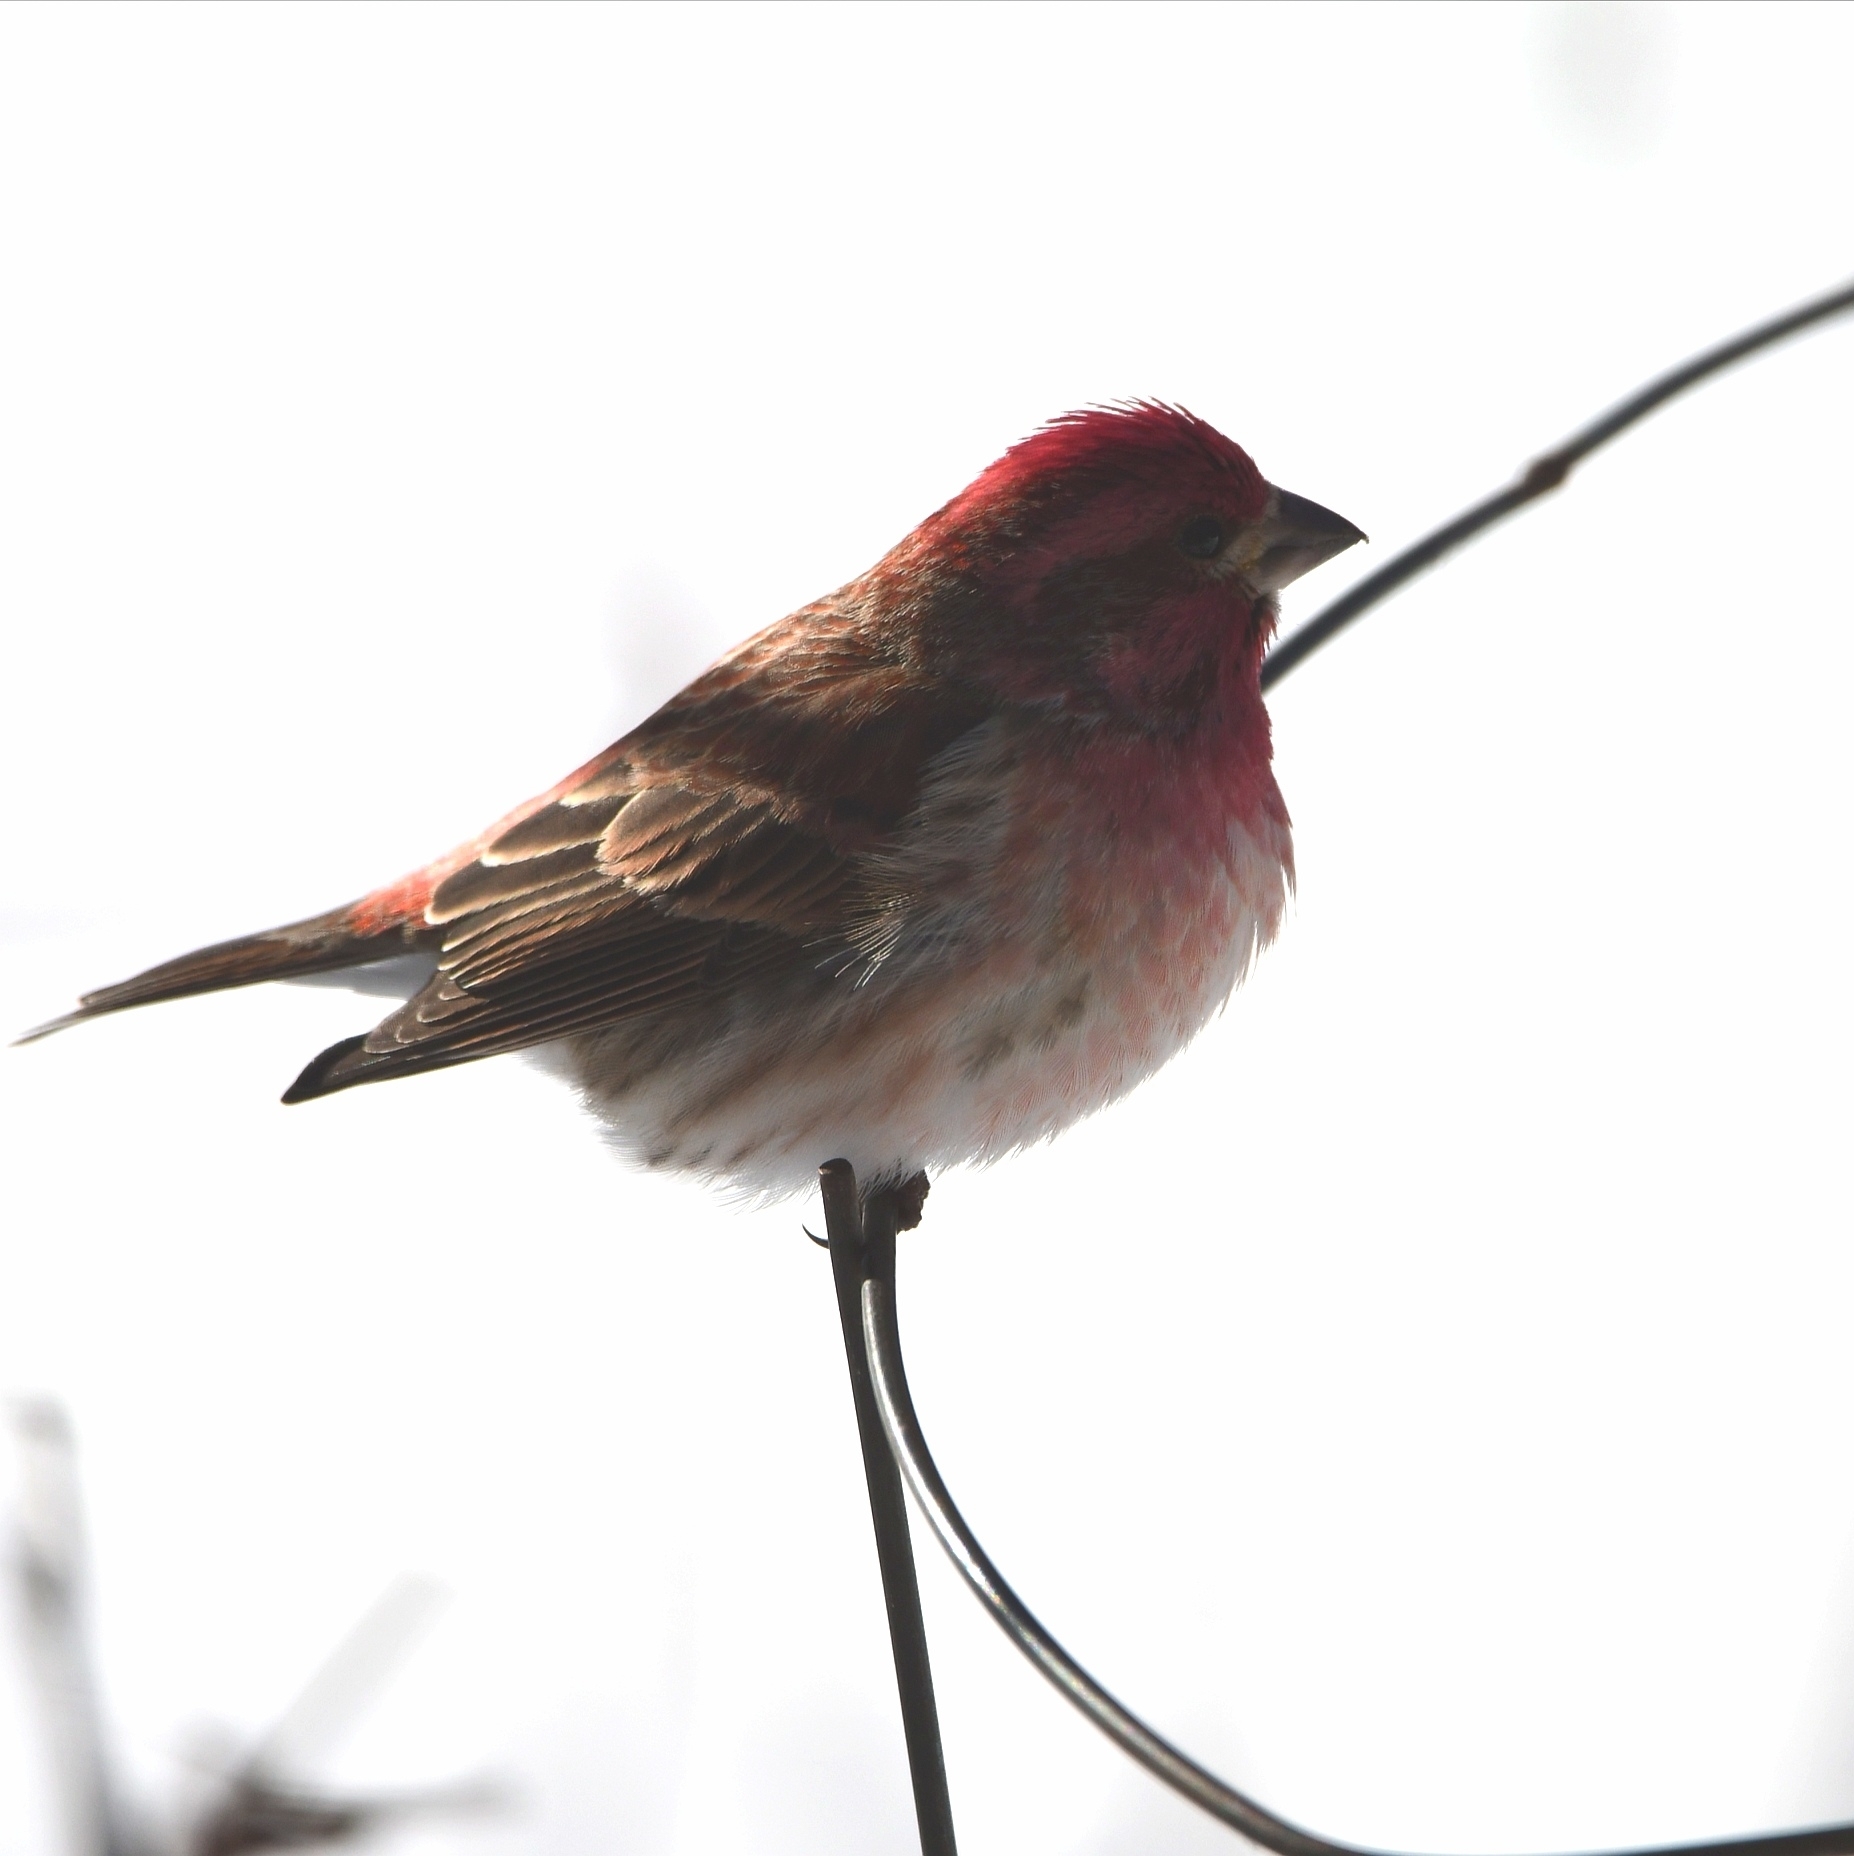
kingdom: Animalia
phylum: Chordata
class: Aves
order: Passeriformes
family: Fringillidae
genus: Haemorhous
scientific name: Haemorhous purpureus
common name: Purple finch
